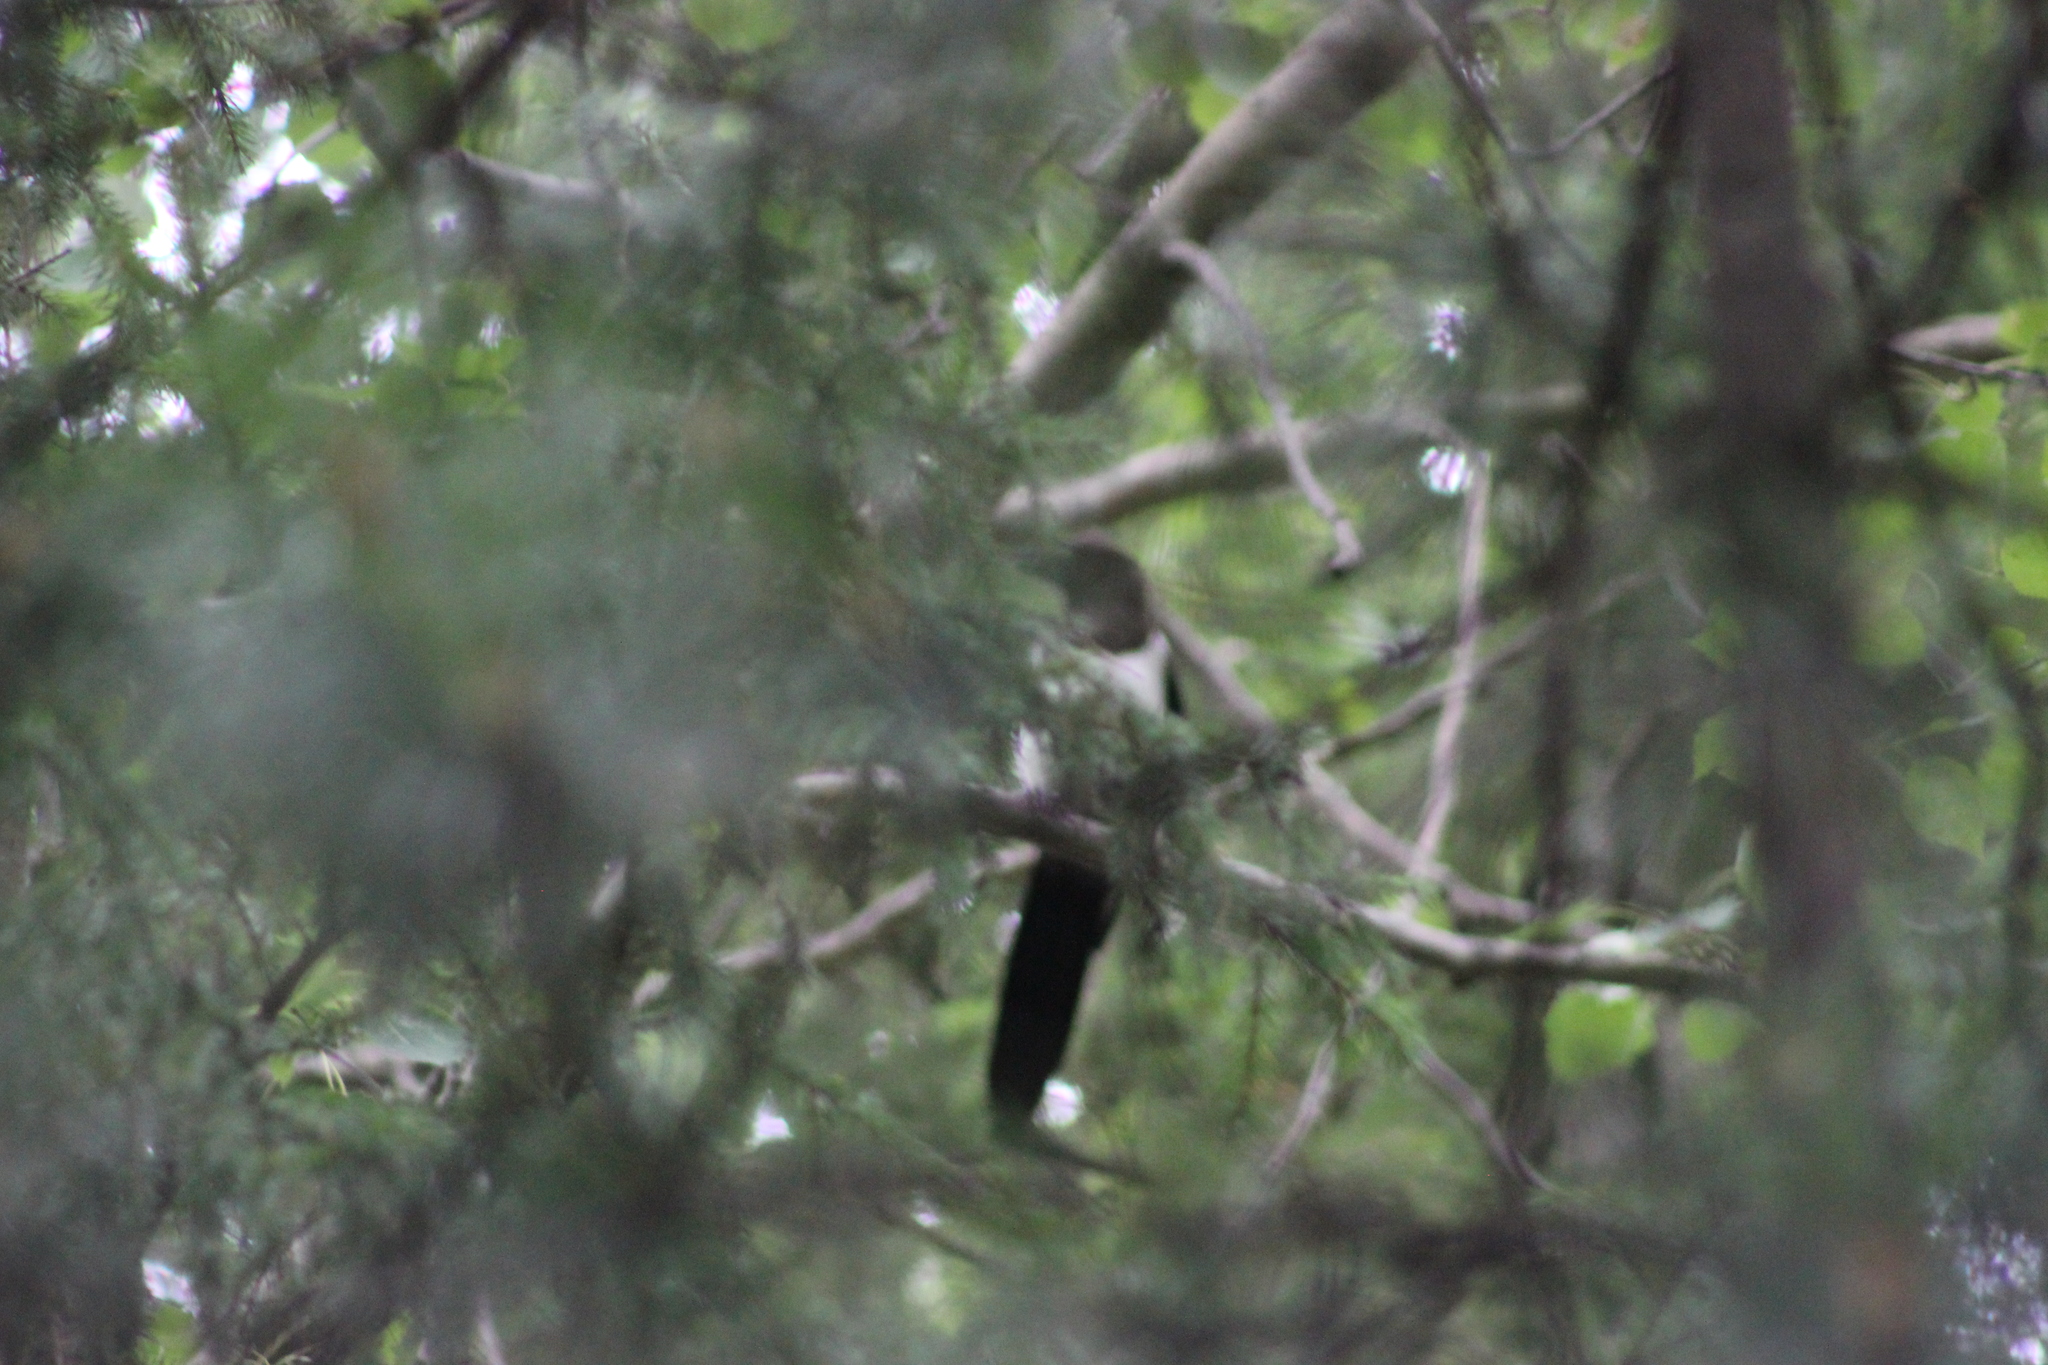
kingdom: Animalia
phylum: Chordata
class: Aves
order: Passeriformes
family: Corvidae
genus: Pica
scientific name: Pica pica
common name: Eurasian magpie
